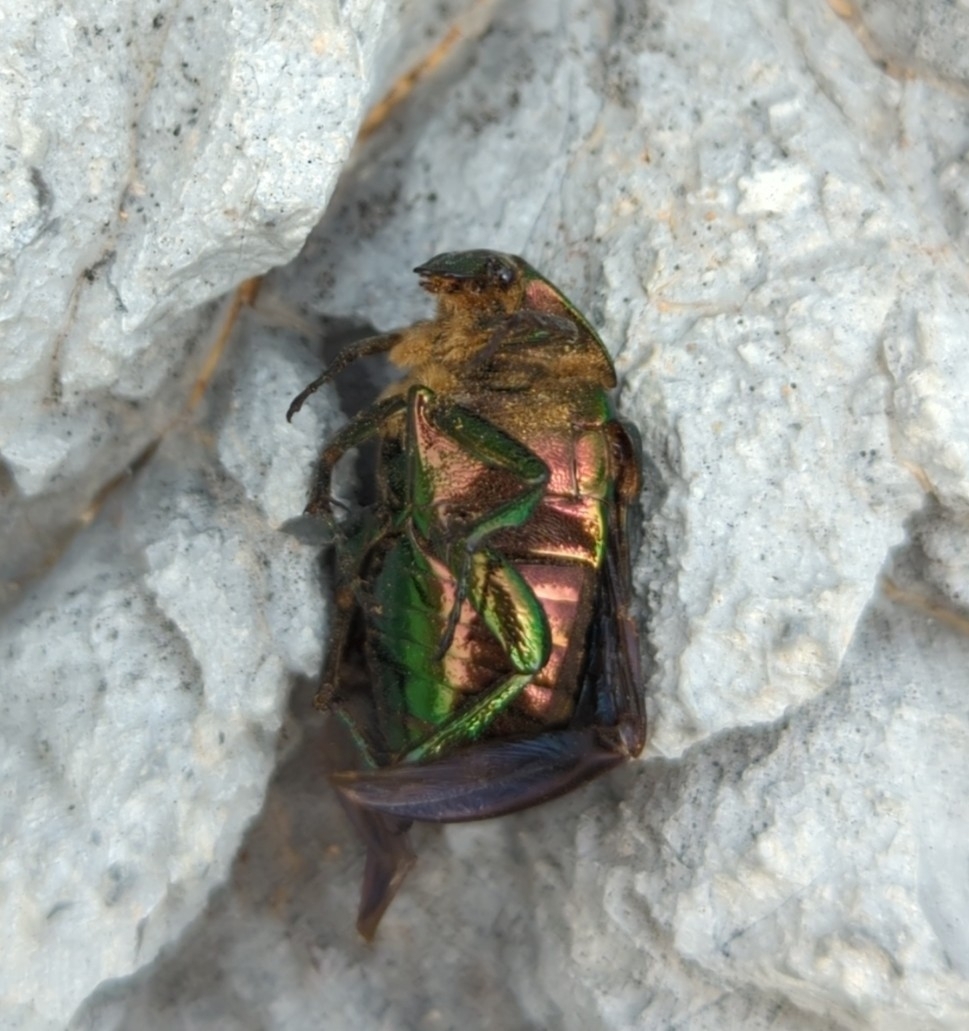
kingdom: Animalia
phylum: Arthropoda
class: Insecta
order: Coleoptera
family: Scarabaeidae
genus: Cetonia
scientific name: Cetonia aurata
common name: Rose chafer
